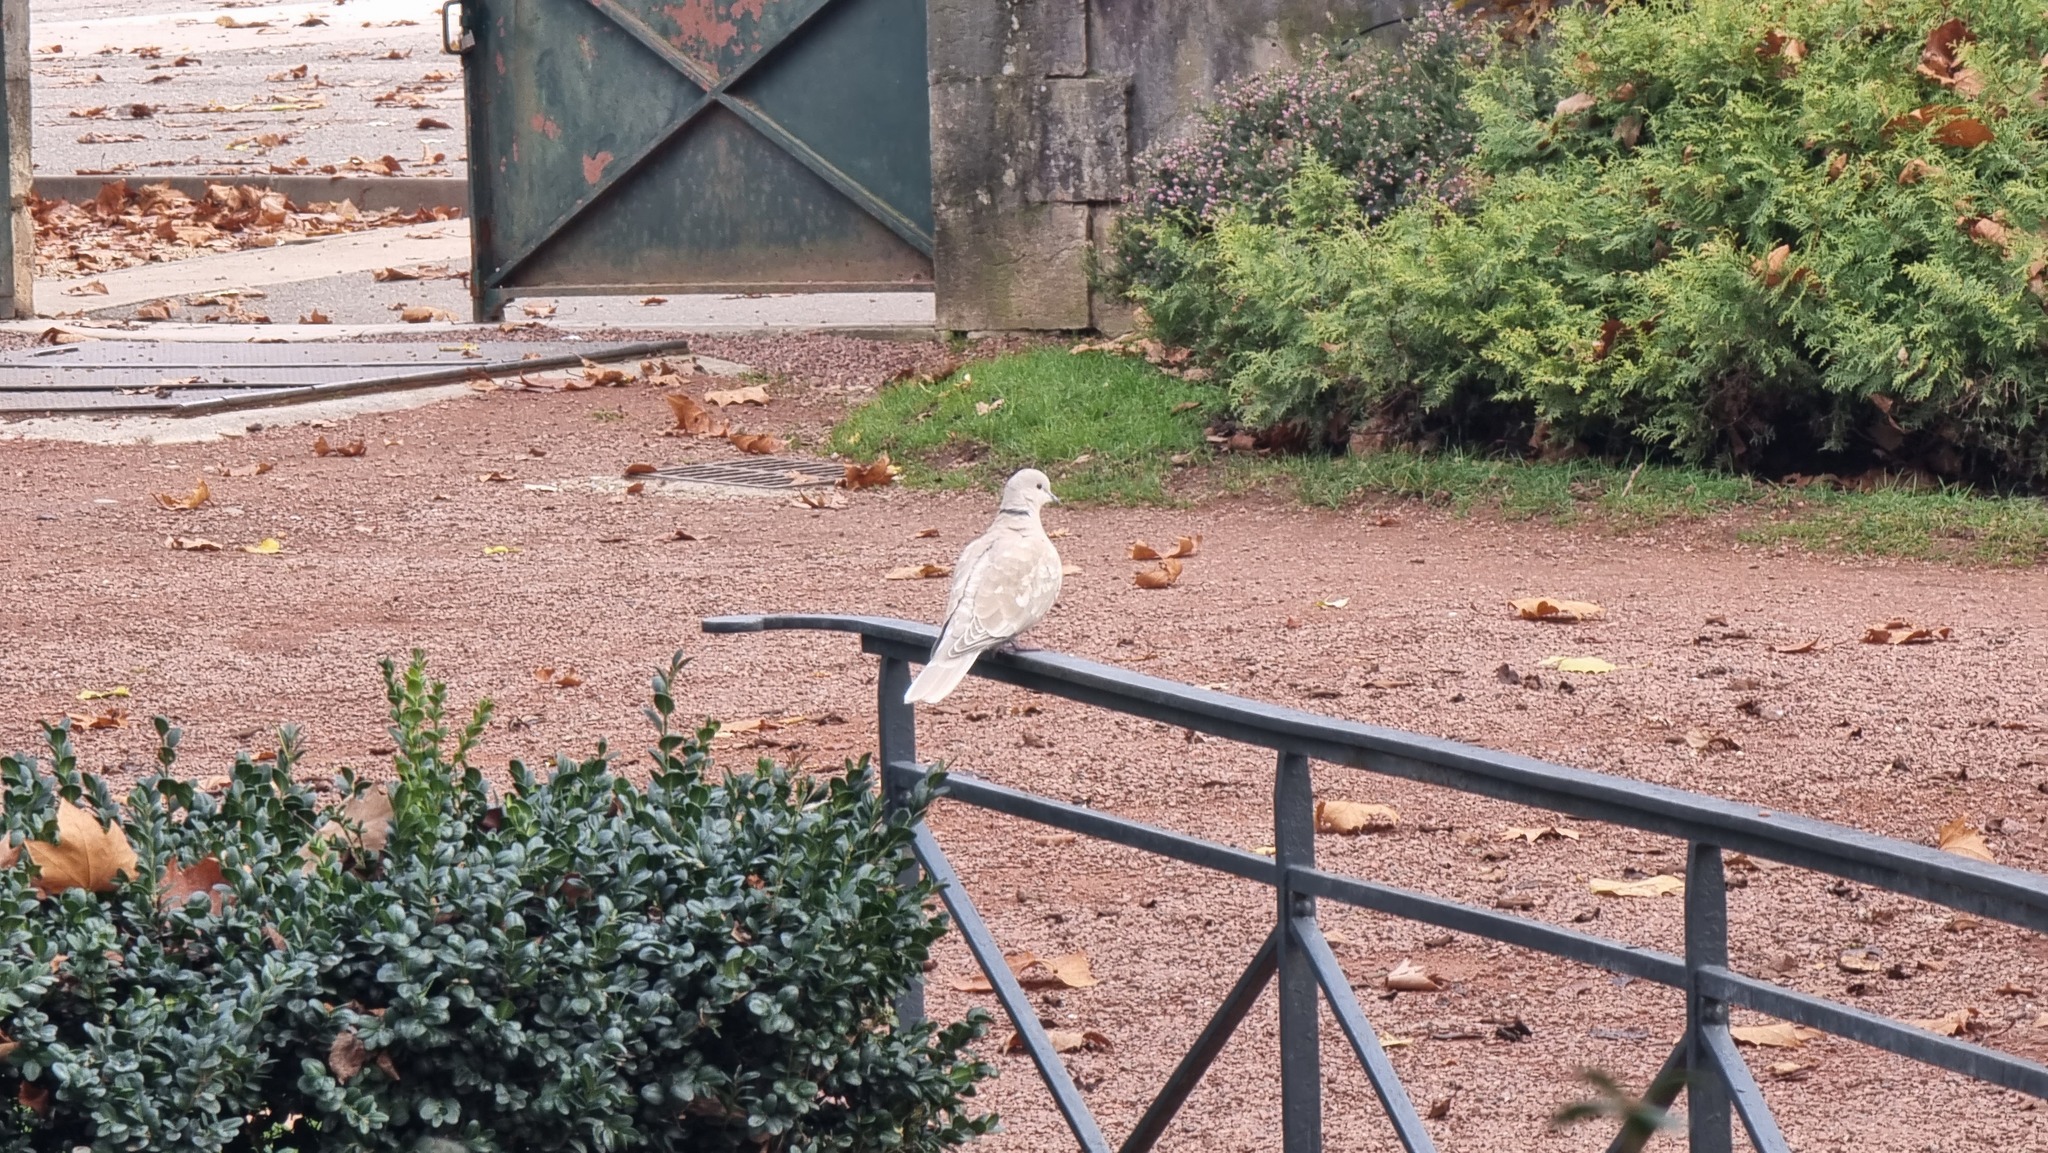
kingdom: Animalia
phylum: Chordata
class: Aves
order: Columbiformes
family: Columbidae
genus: Streptopelia
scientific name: Streptopelia decaocto
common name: Eurasian collared dove
